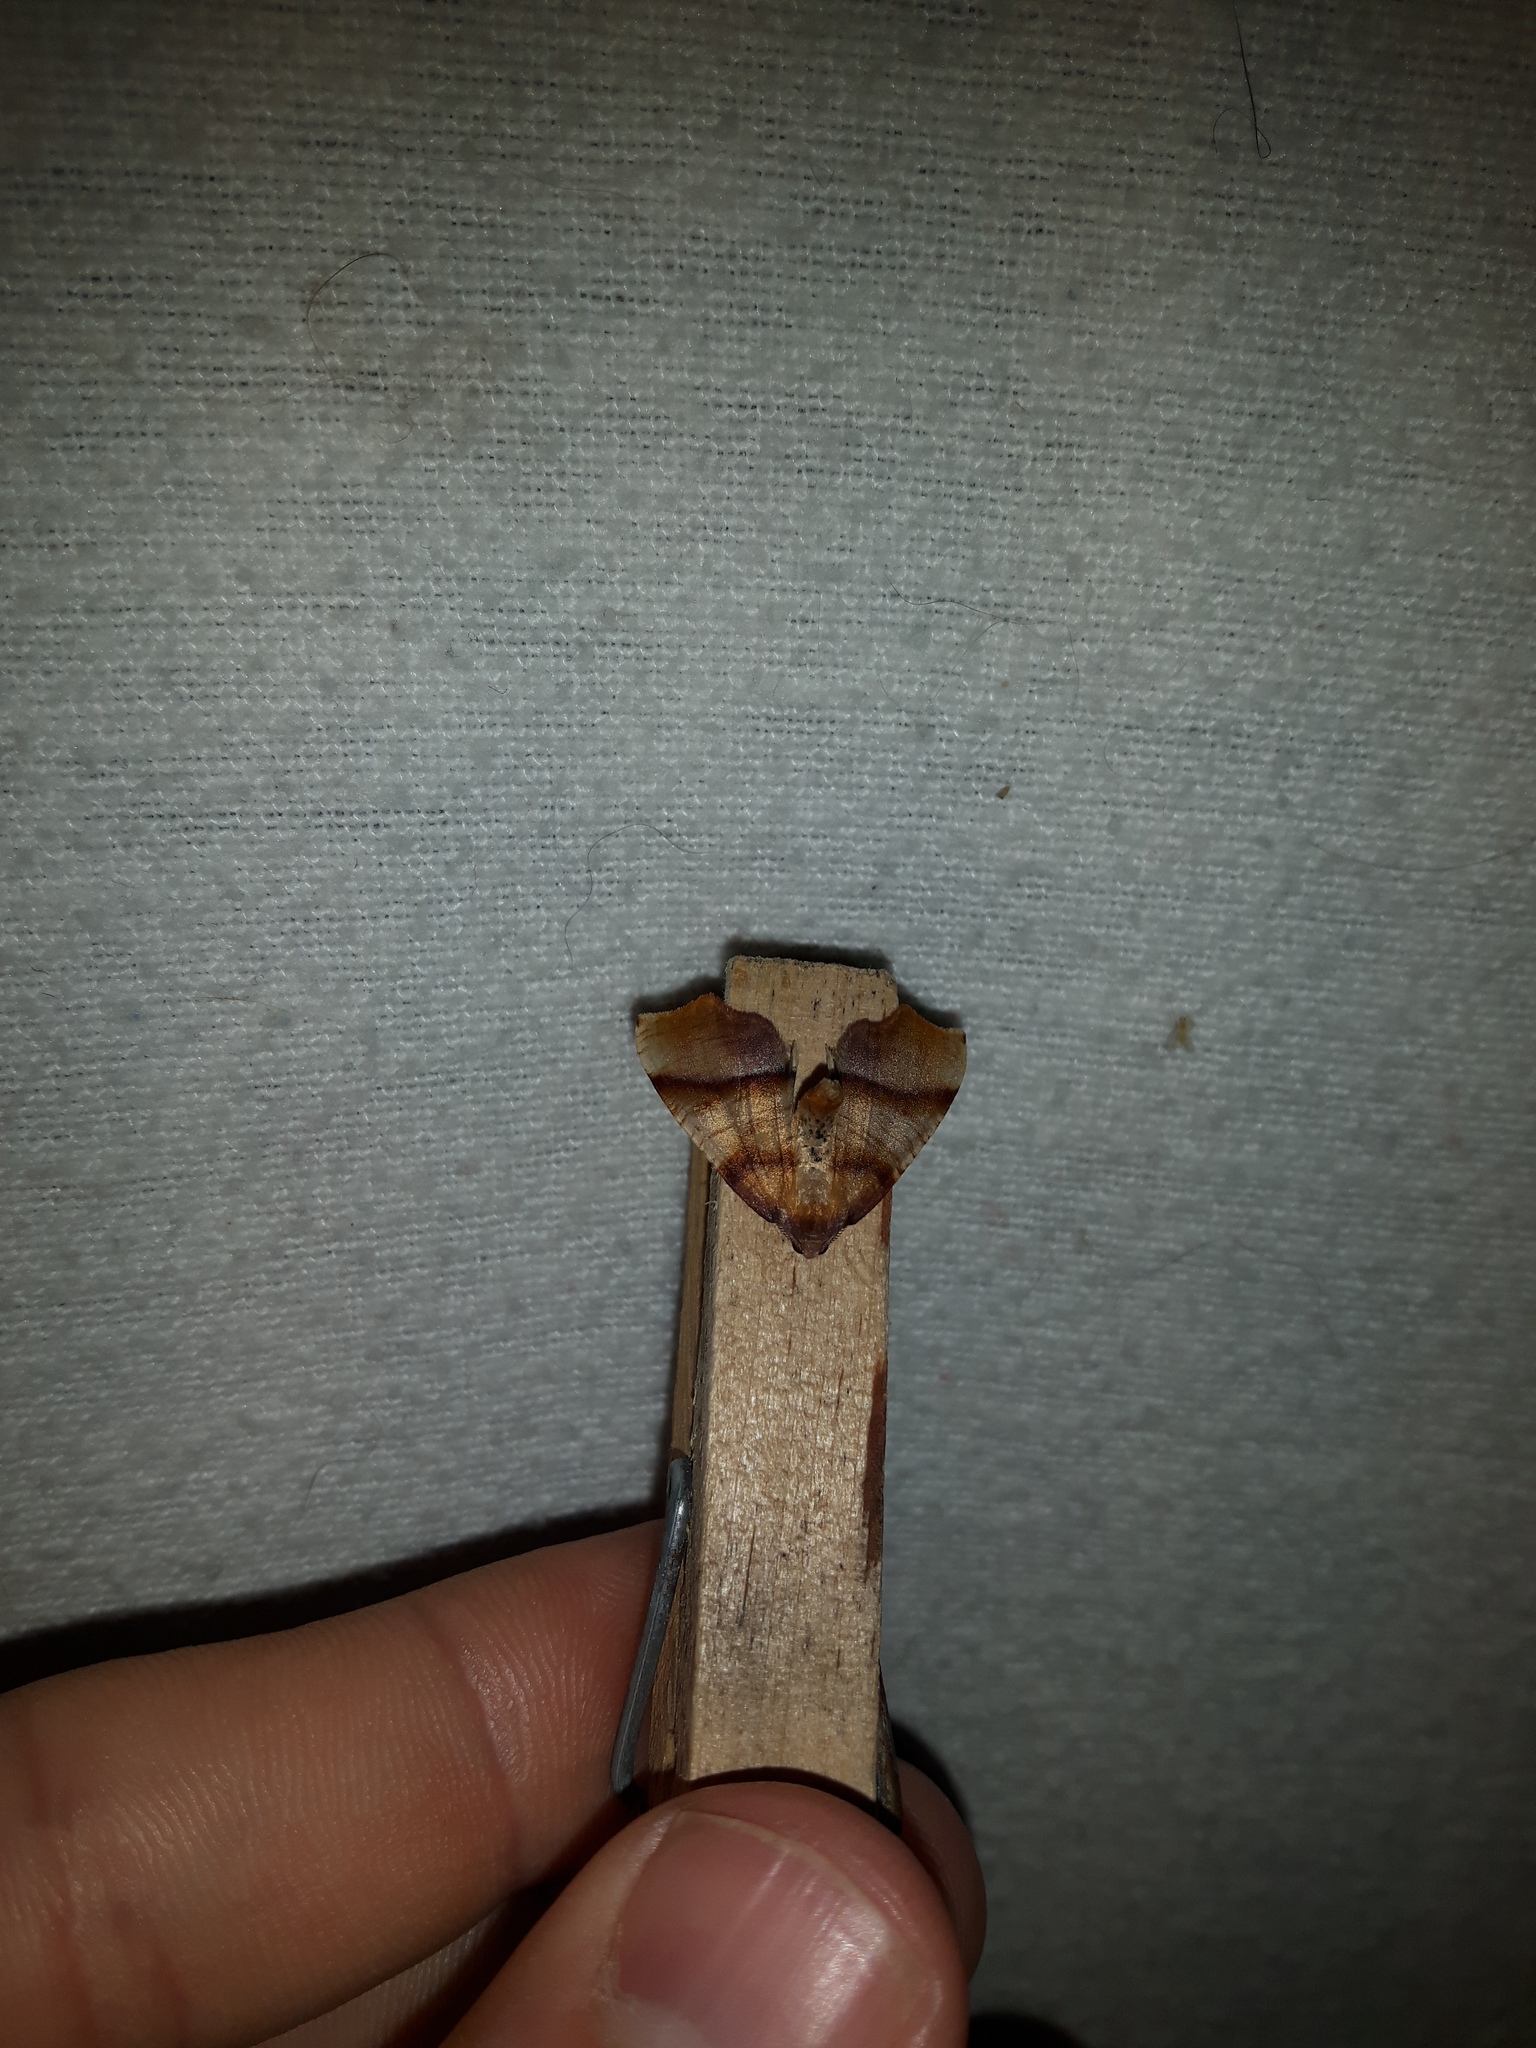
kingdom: Animalia
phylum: Arthropoda
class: Insecta
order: Lepidoptera
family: Geometridae
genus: Plagodis
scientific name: Plagodis phlogosaria
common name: Straight-lined plagodis
